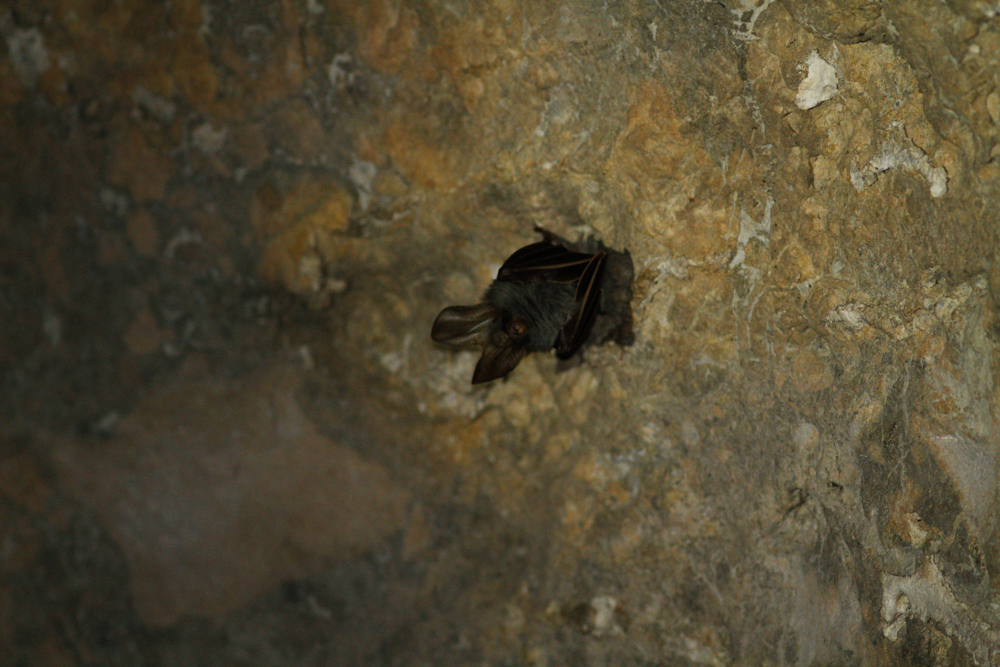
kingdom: Animalia
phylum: Chordata
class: Mammalia
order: Chiroptera
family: Megadermatidae
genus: Megaderma
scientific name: Megaderma spasma
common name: Lesser false vampire bat
